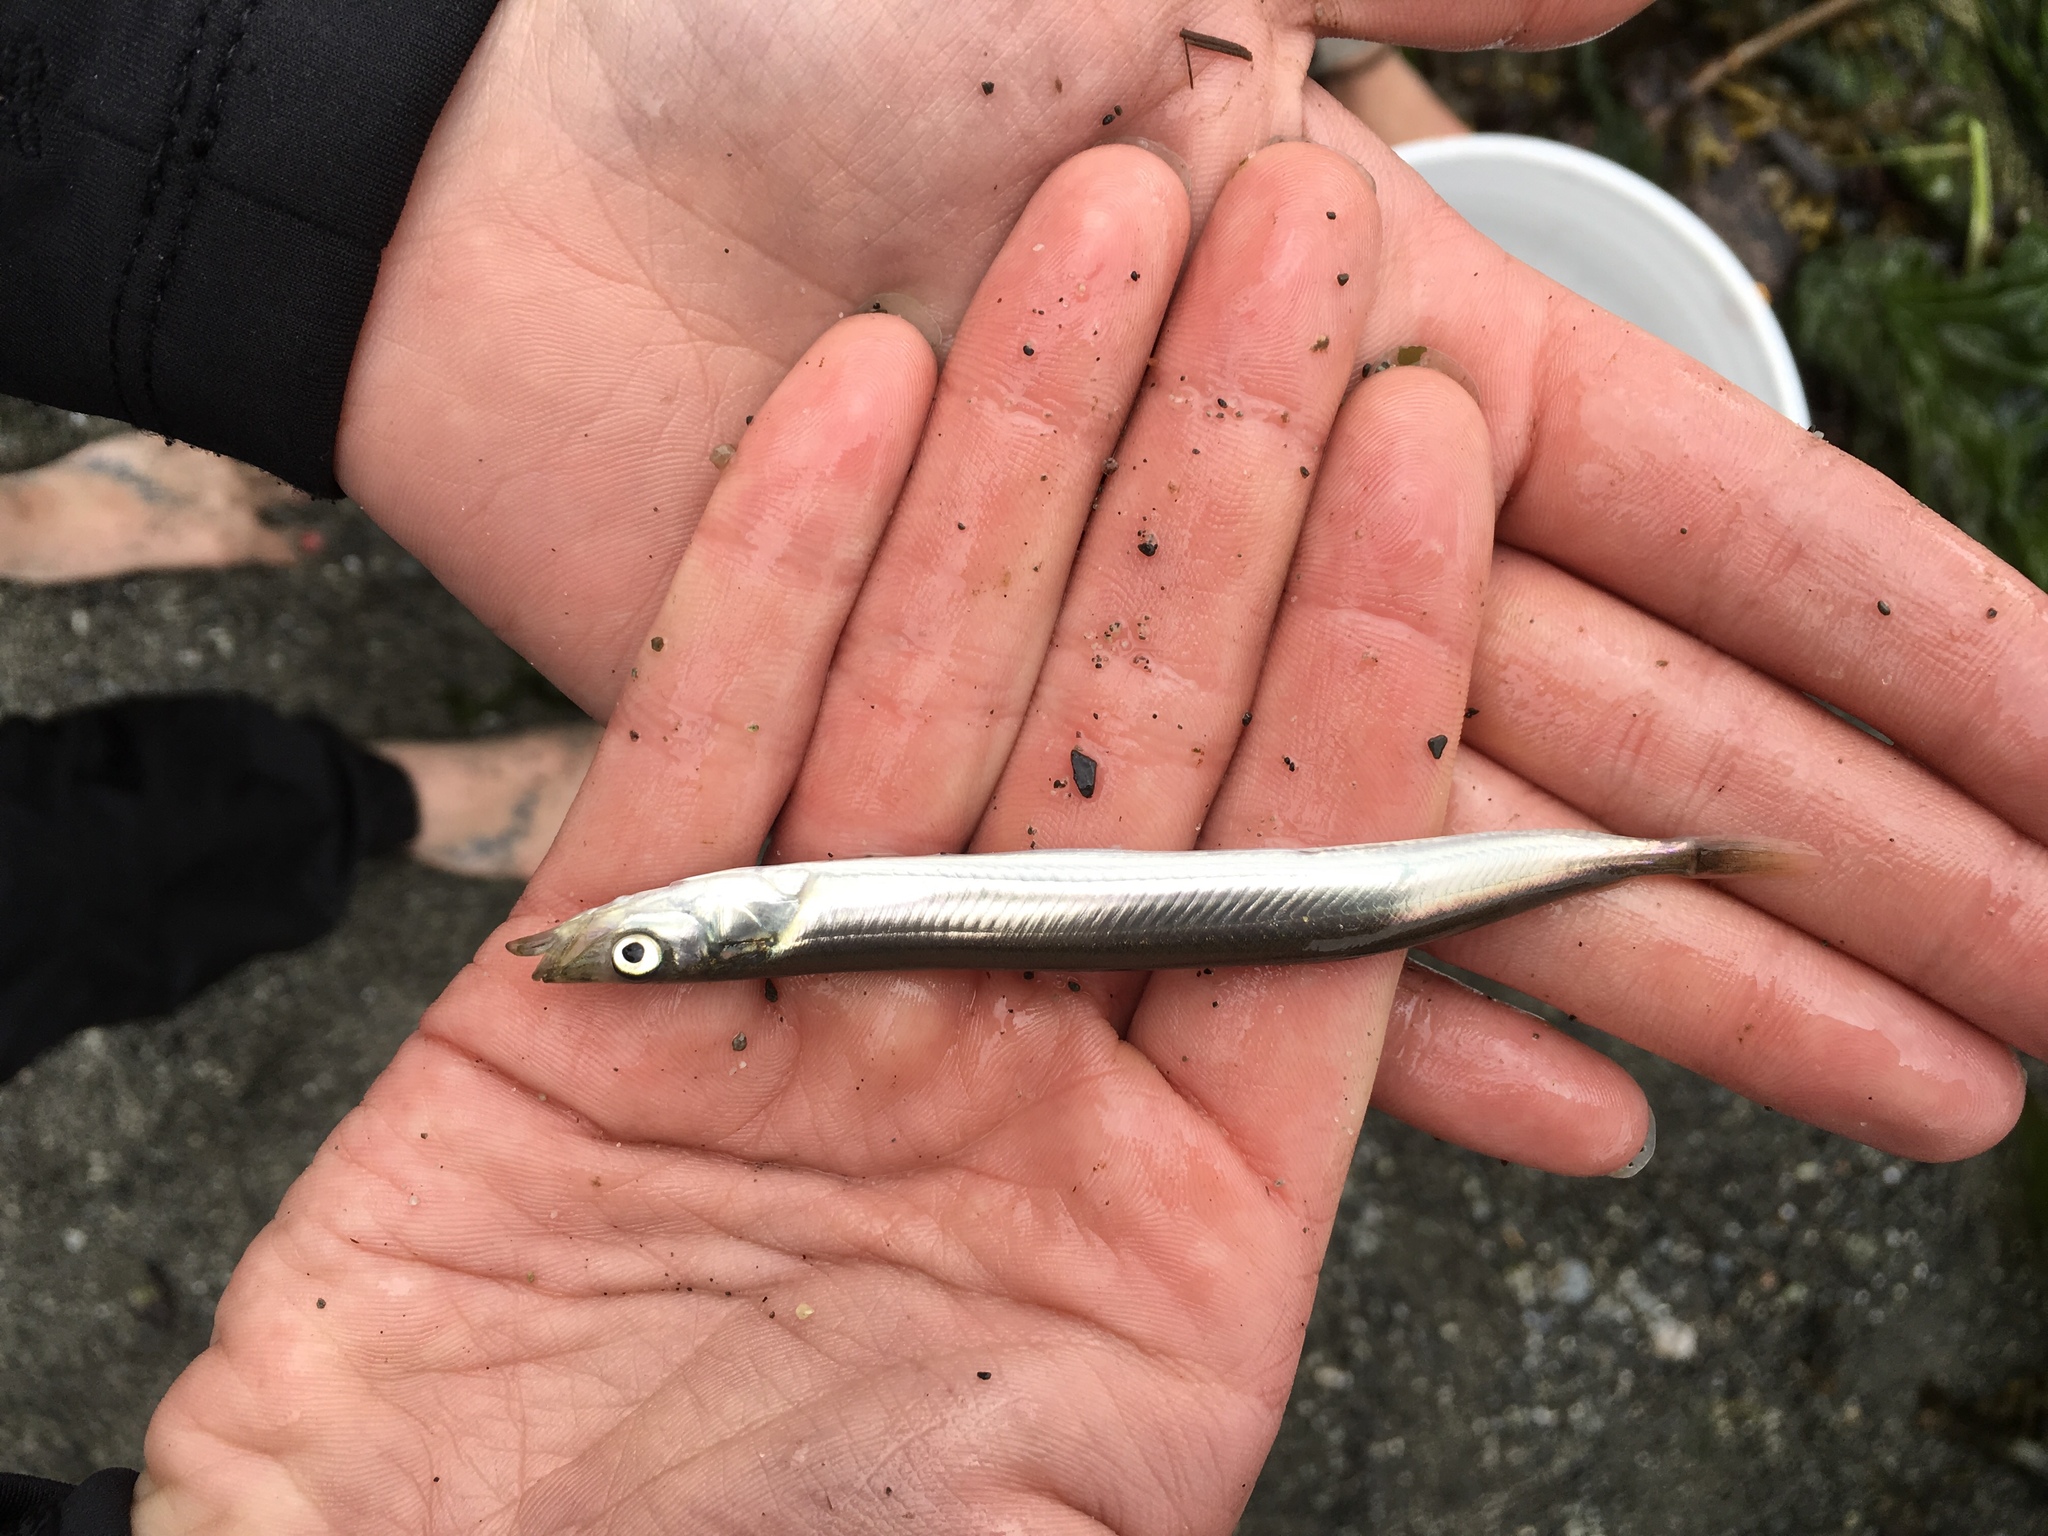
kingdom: Animalia
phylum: Chordata
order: Perciformes
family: Ammodytidae
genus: Ammodytes
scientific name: Ammodytes personatus
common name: Japanese sand lance
